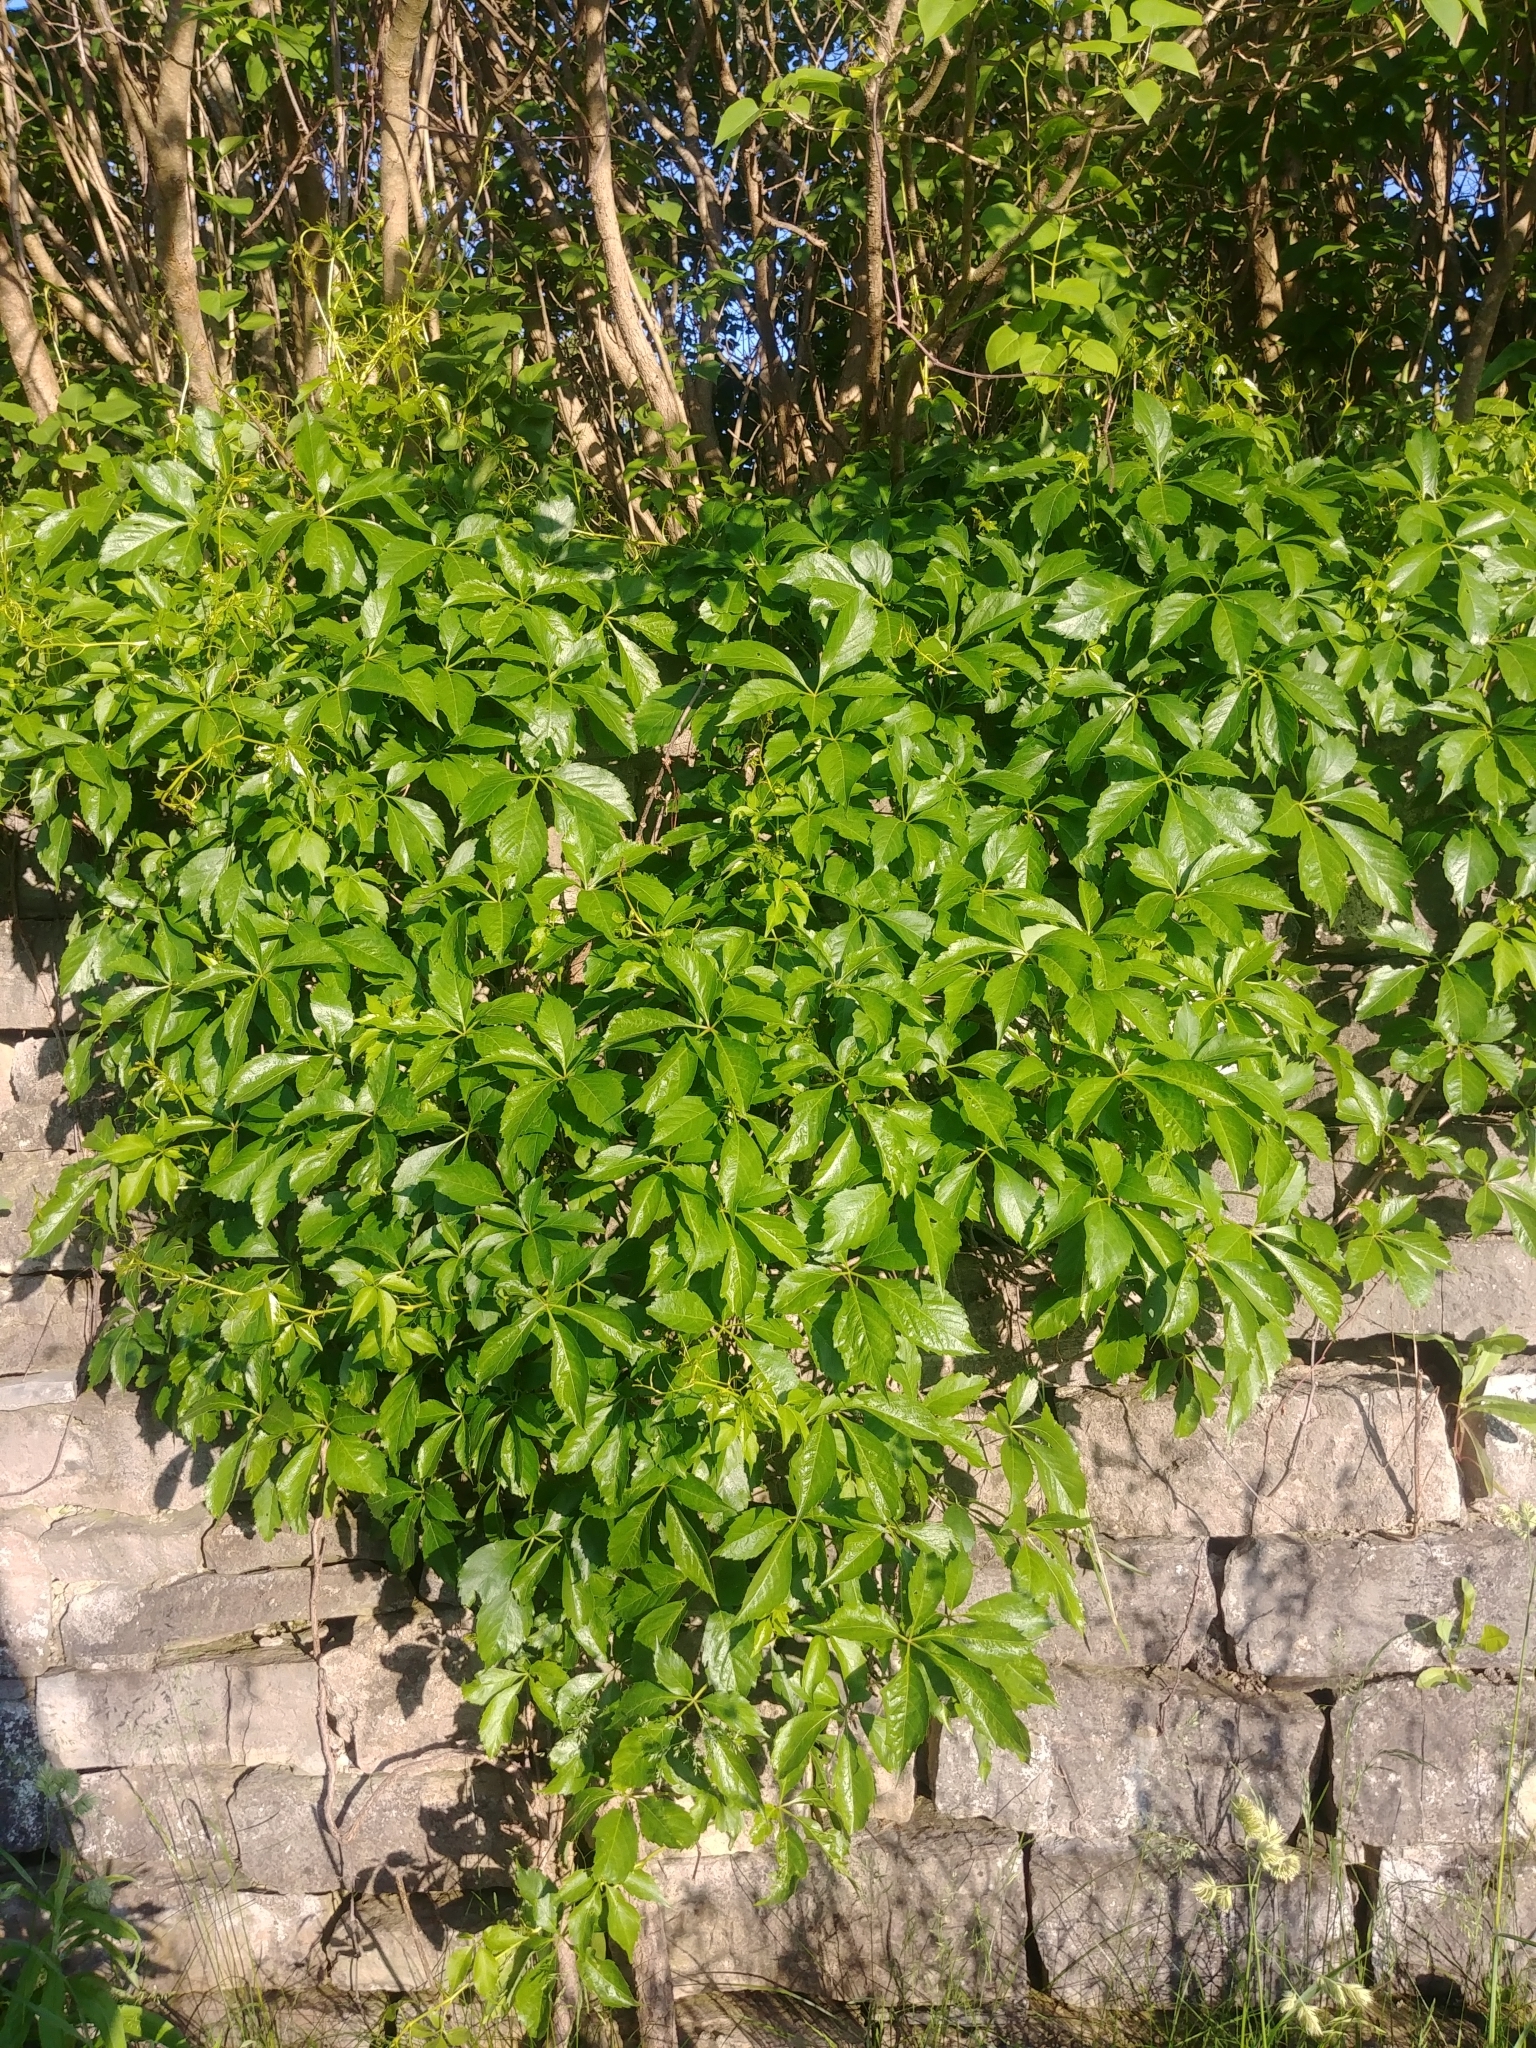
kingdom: Plantae
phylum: Tracheophyta
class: Magnoliopsida
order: Vitales
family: Vitaceae
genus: Parthenocissus
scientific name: Parthenocissus quinquefolia
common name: Virginia-creeper
